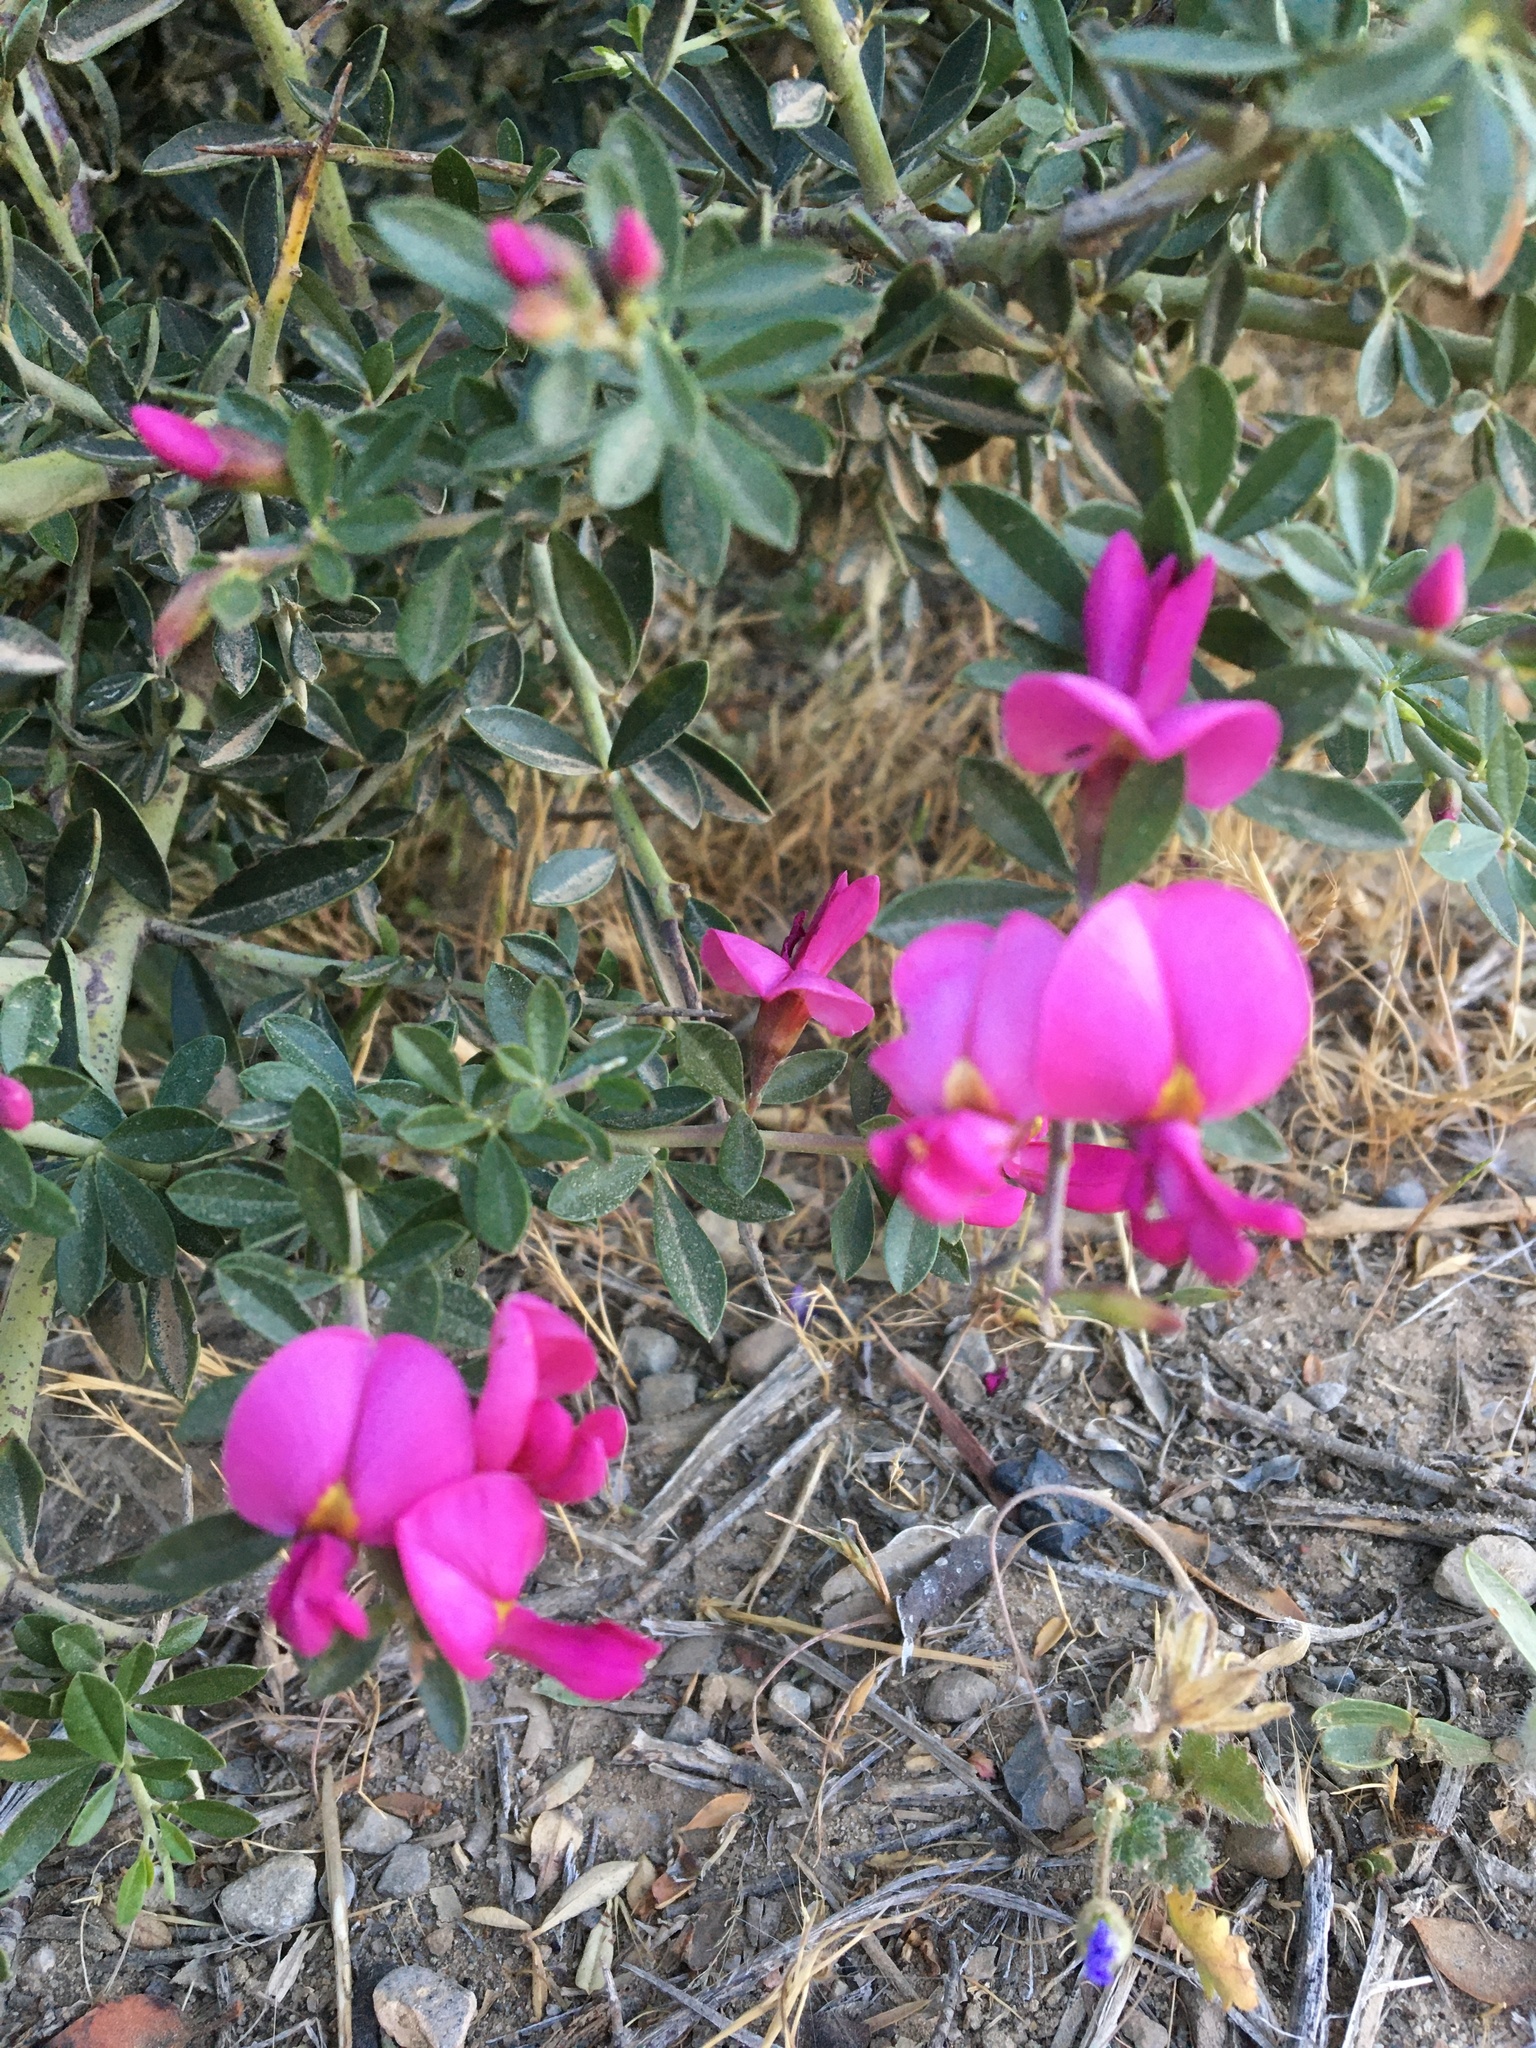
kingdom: Plantae
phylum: Tracheophyta
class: Magnoliopsida
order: Fabales
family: Fabaceae
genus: Pickeringia
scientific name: Pickeringia montana
